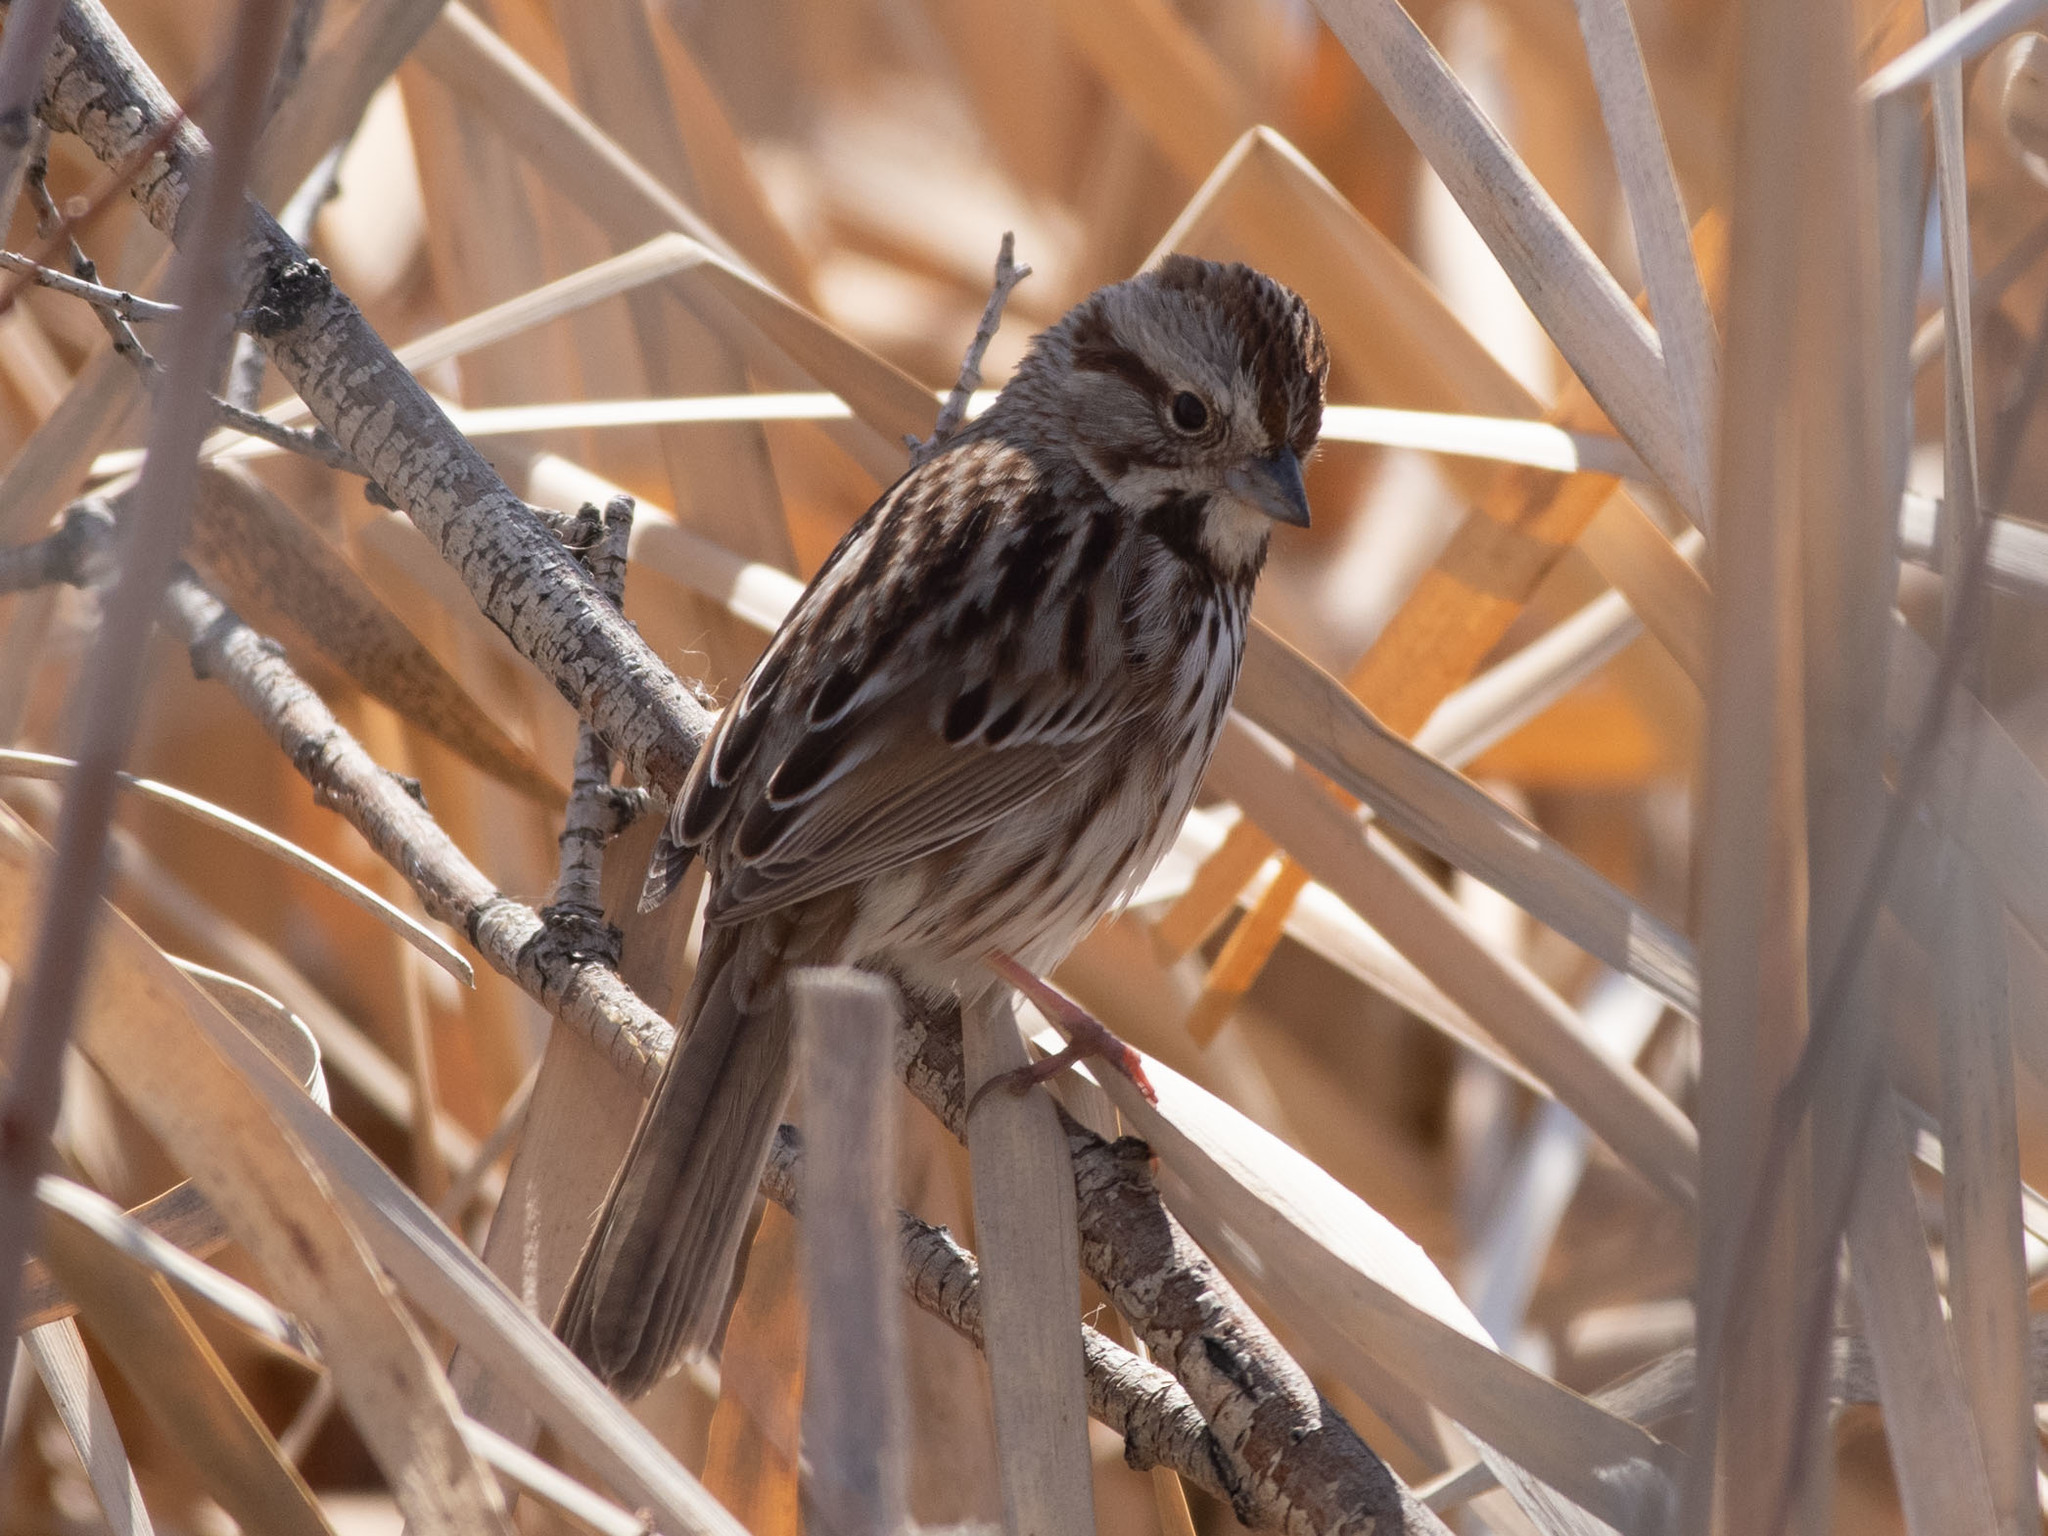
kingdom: Animalia
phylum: Chordata
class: Aves
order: Passeriformes
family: Passerellidae
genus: Melospiza
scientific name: Melospiza melodia
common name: Song sparrow
